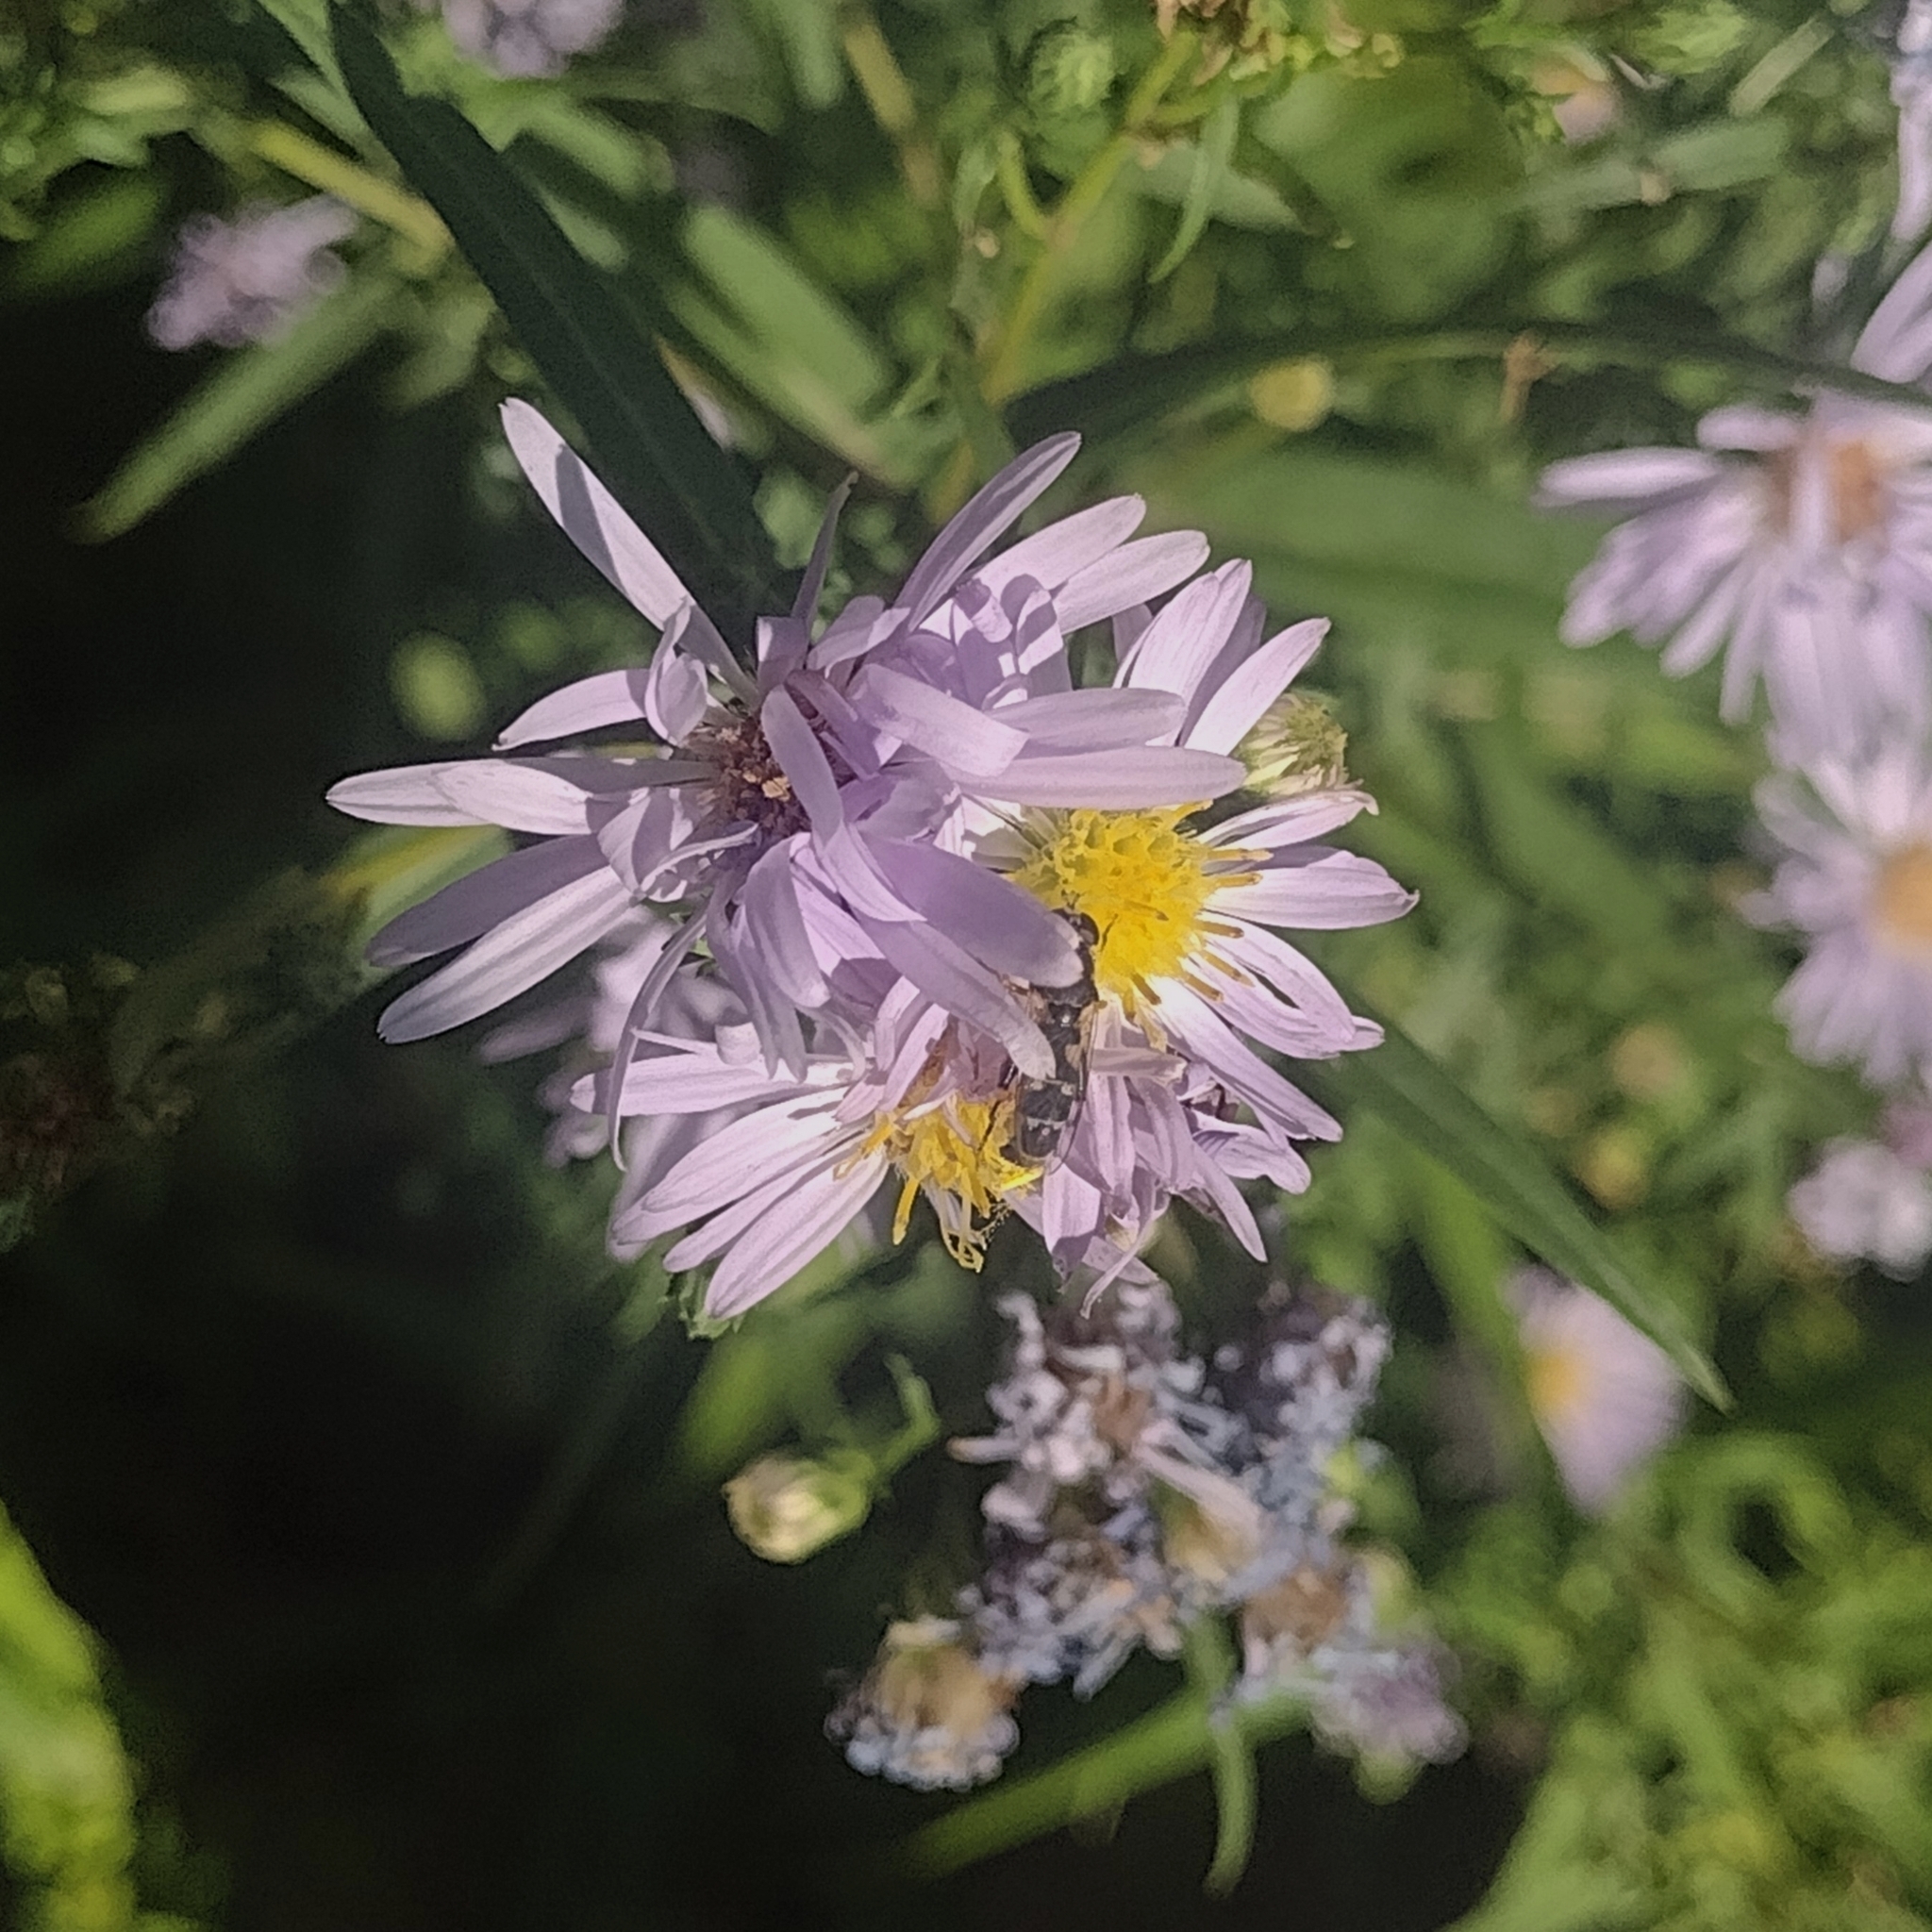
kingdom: Animalia
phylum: Arthropoda
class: Insecta
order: Diptera
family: Syrphidae
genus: Syritta
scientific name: Syritta pipiens
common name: Hover fly
